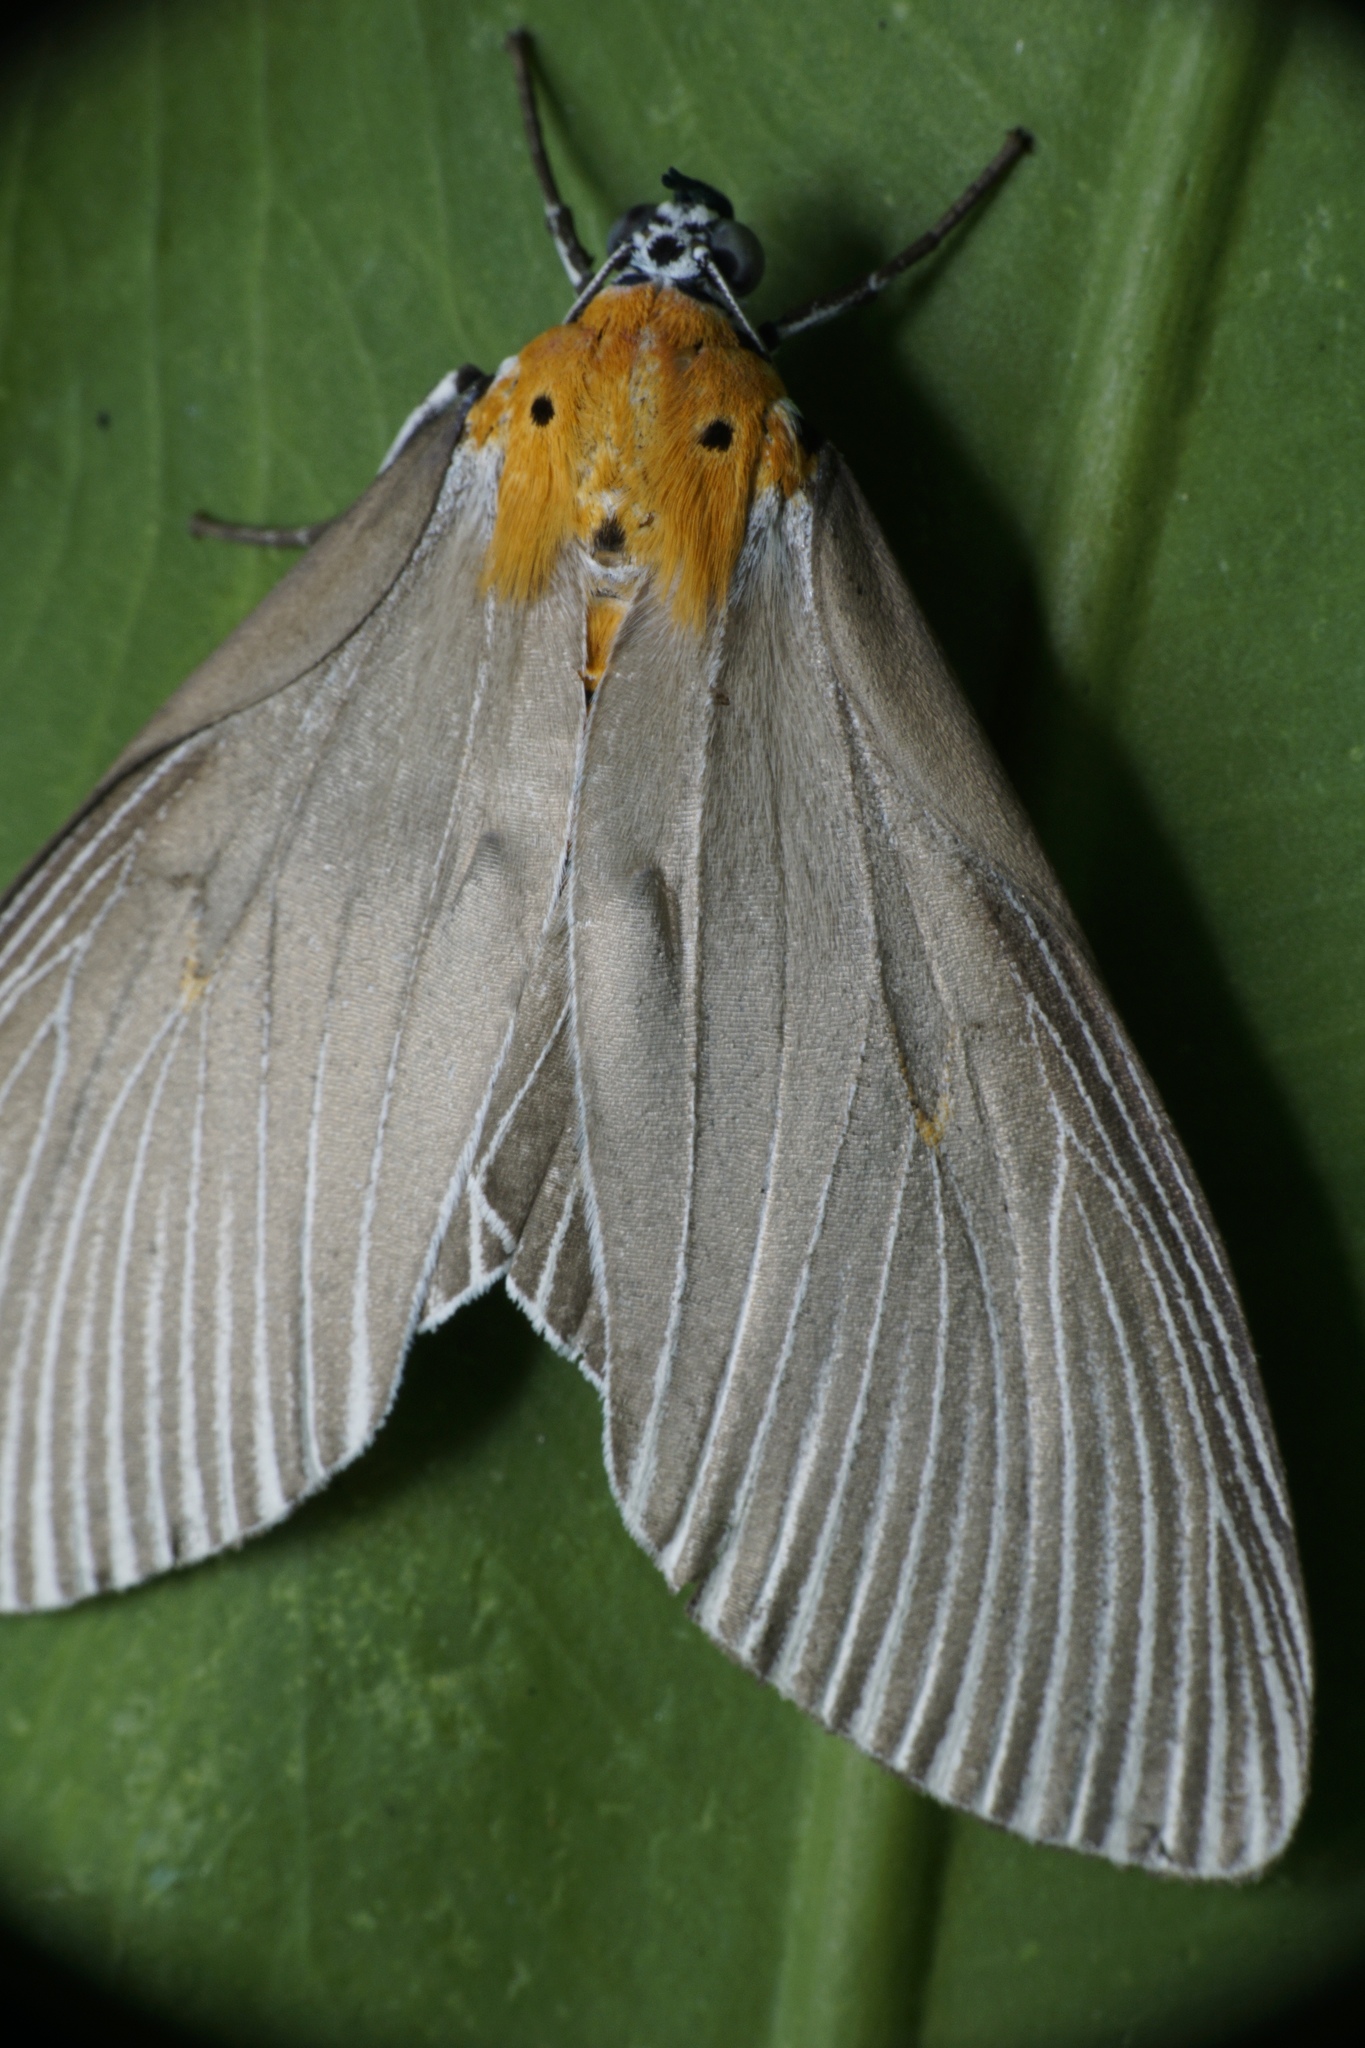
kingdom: Animalia
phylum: Arthropoda
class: Insecta
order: Lepidoptera
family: Erebidae
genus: Euplocia
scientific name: Euplocia membliaria
